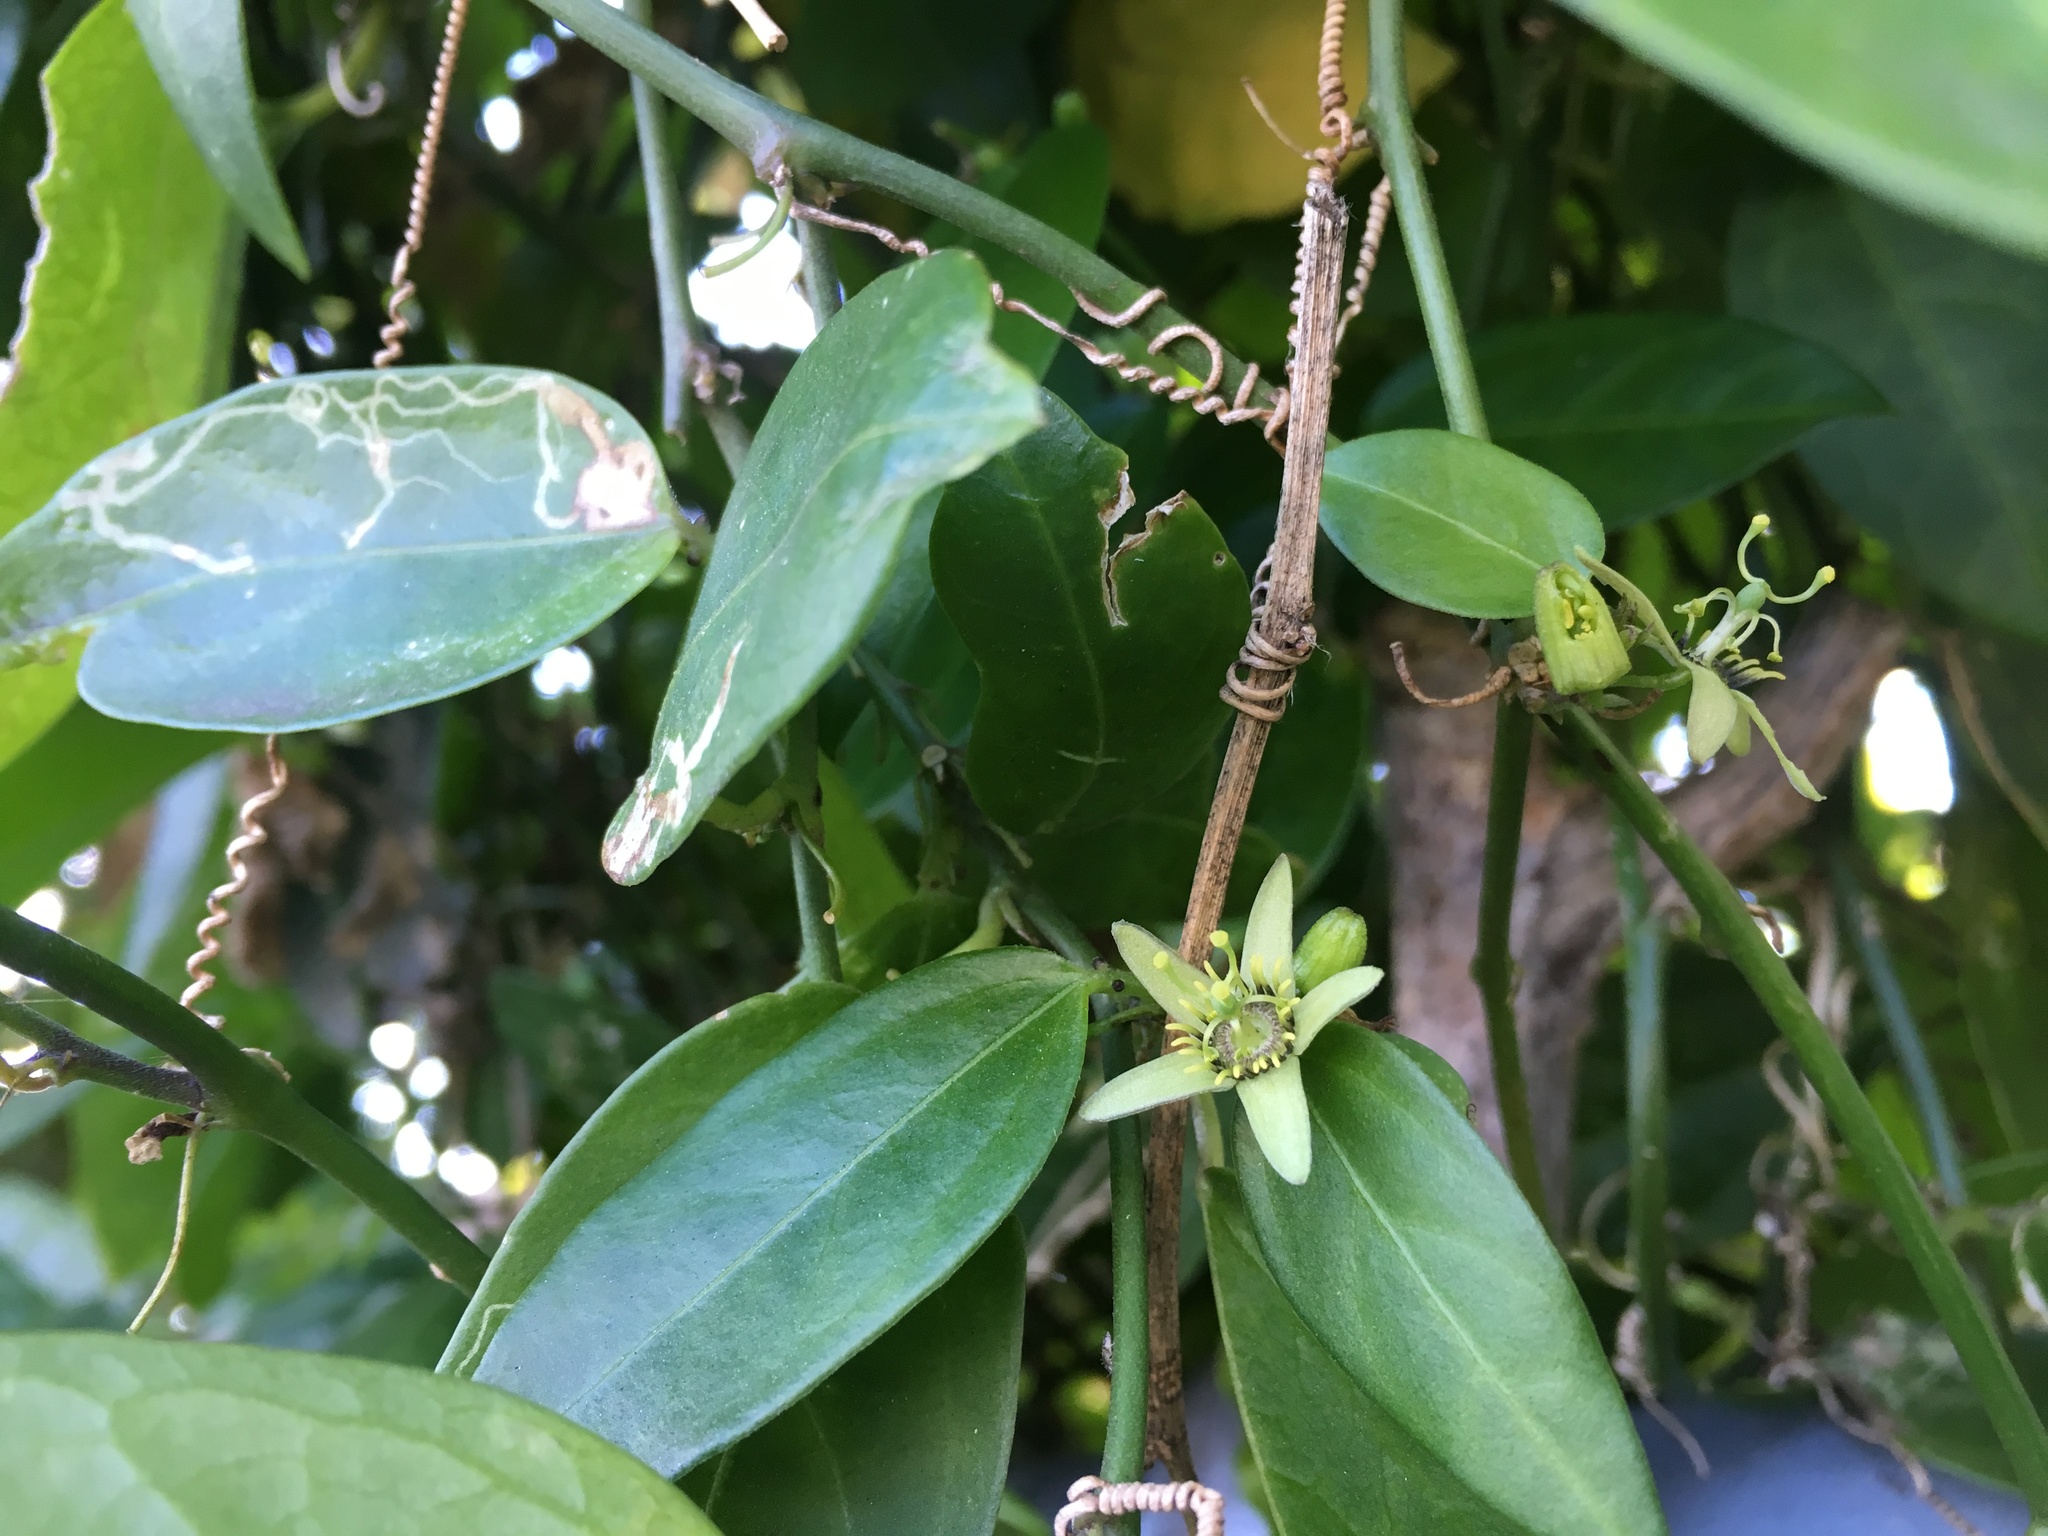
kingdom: Plantae
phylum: Tracheophyta
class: Magnoliopsida
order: Malpighiales
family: Passifloraceae
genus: Passiflora
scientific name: Passiflora pallida
